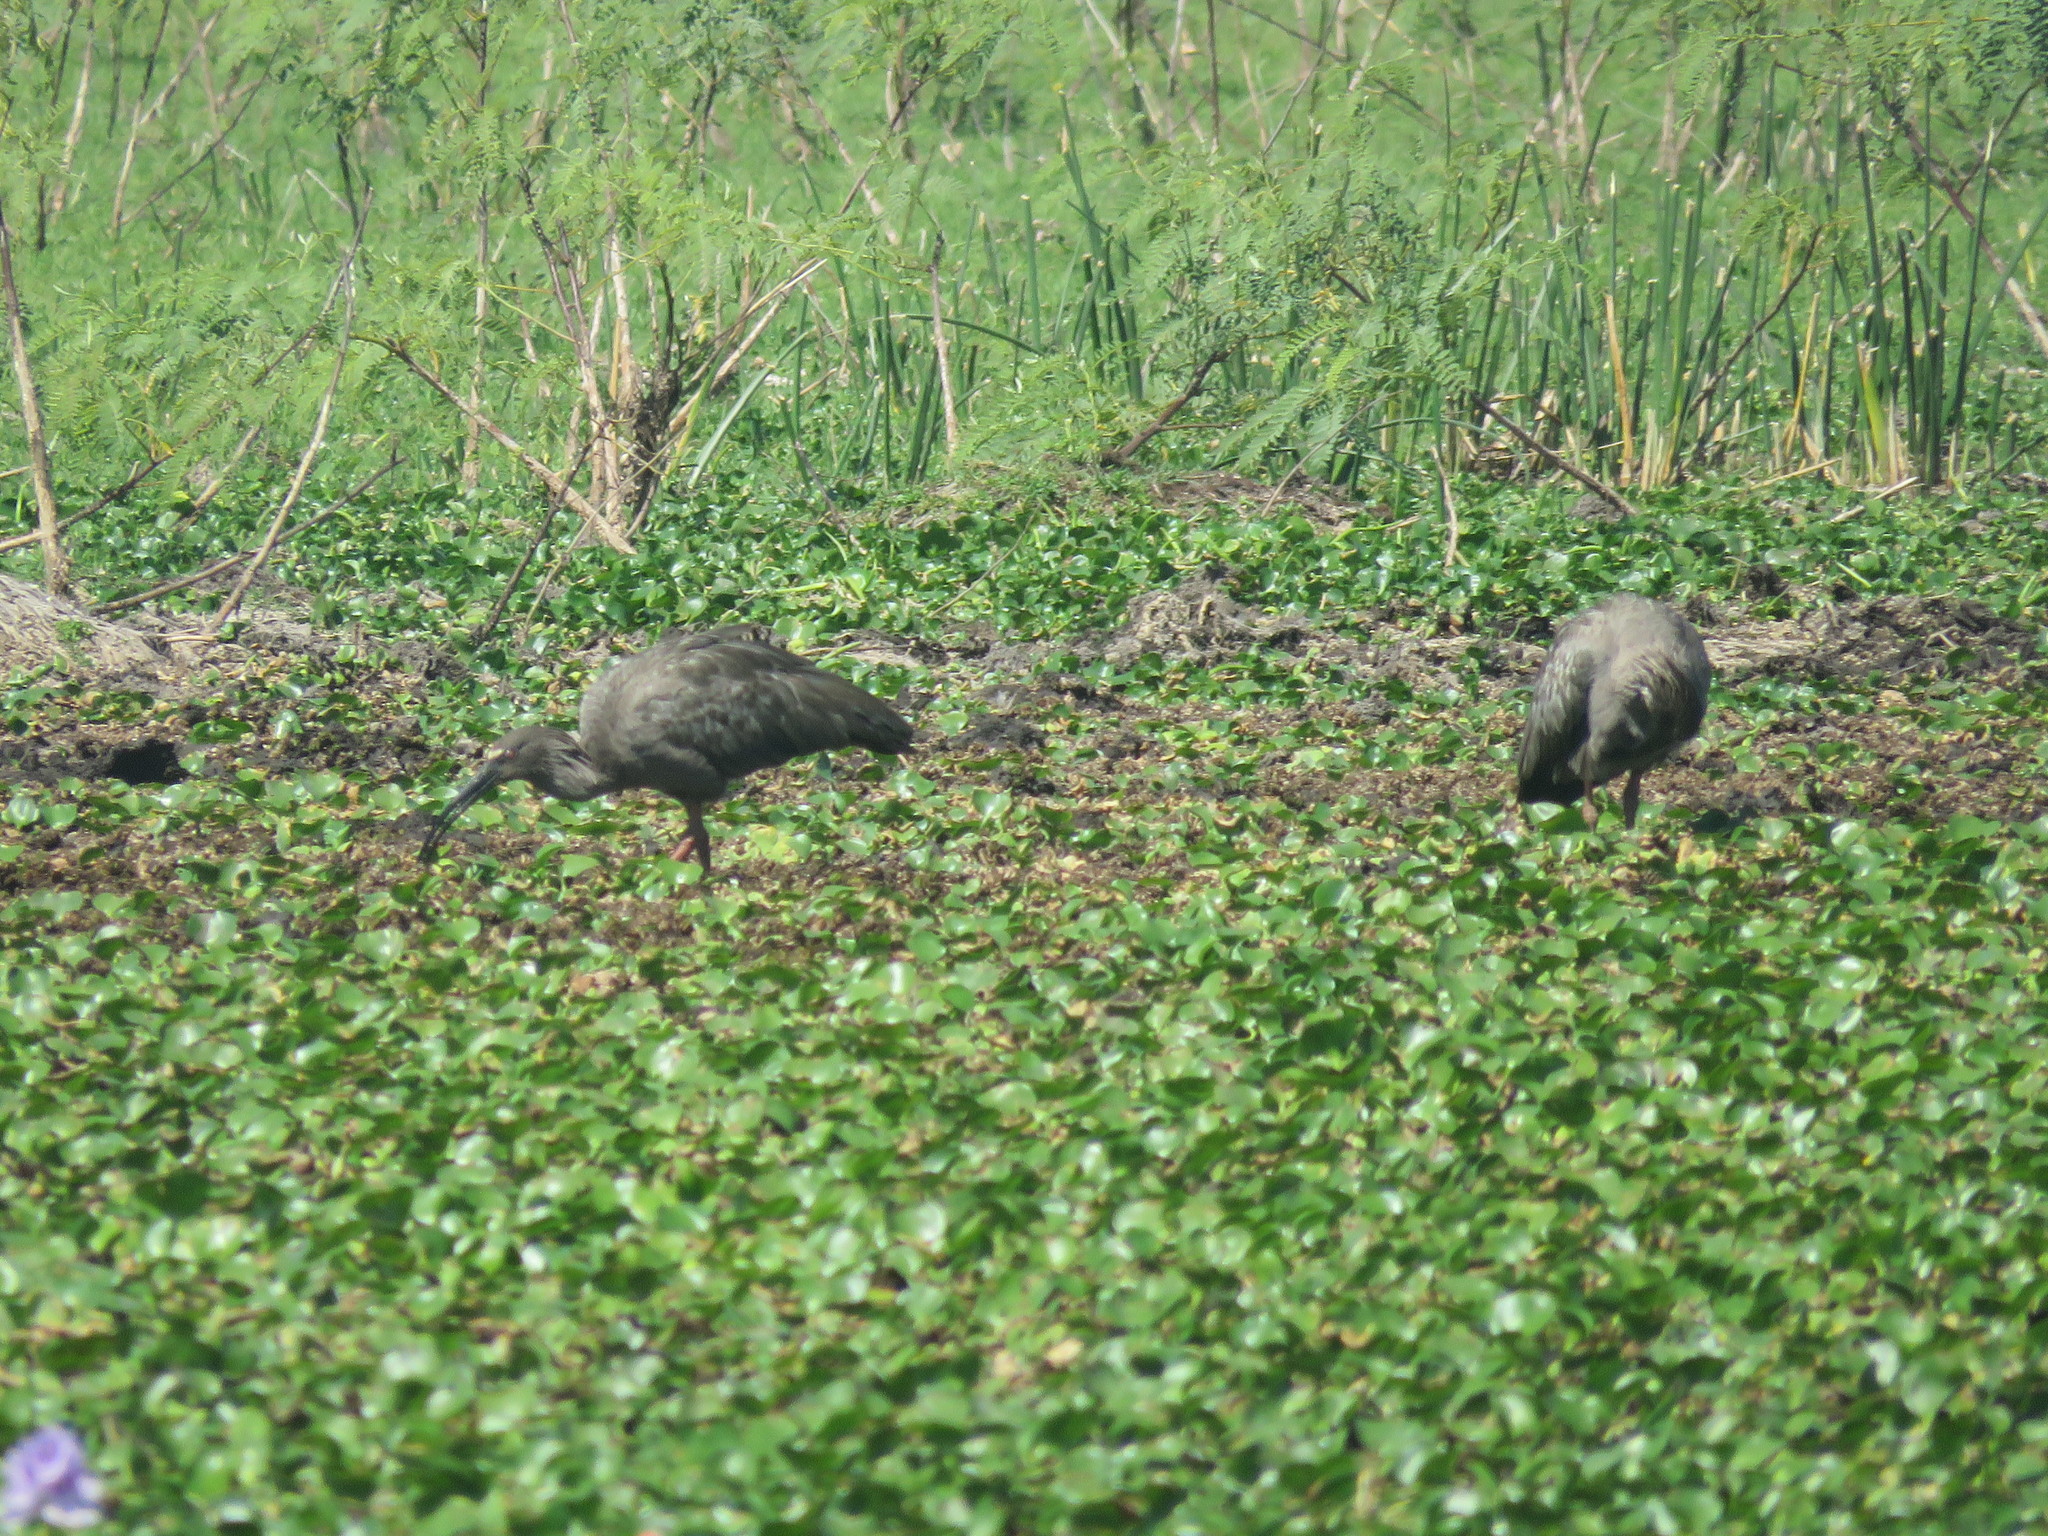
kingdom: Animalia
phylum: Chordata
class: Aves
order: Pelecaniformes
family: Threskiornithidae
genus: Theristicus
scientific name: Theristicus caerulescens
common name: Plumbeous ibis
